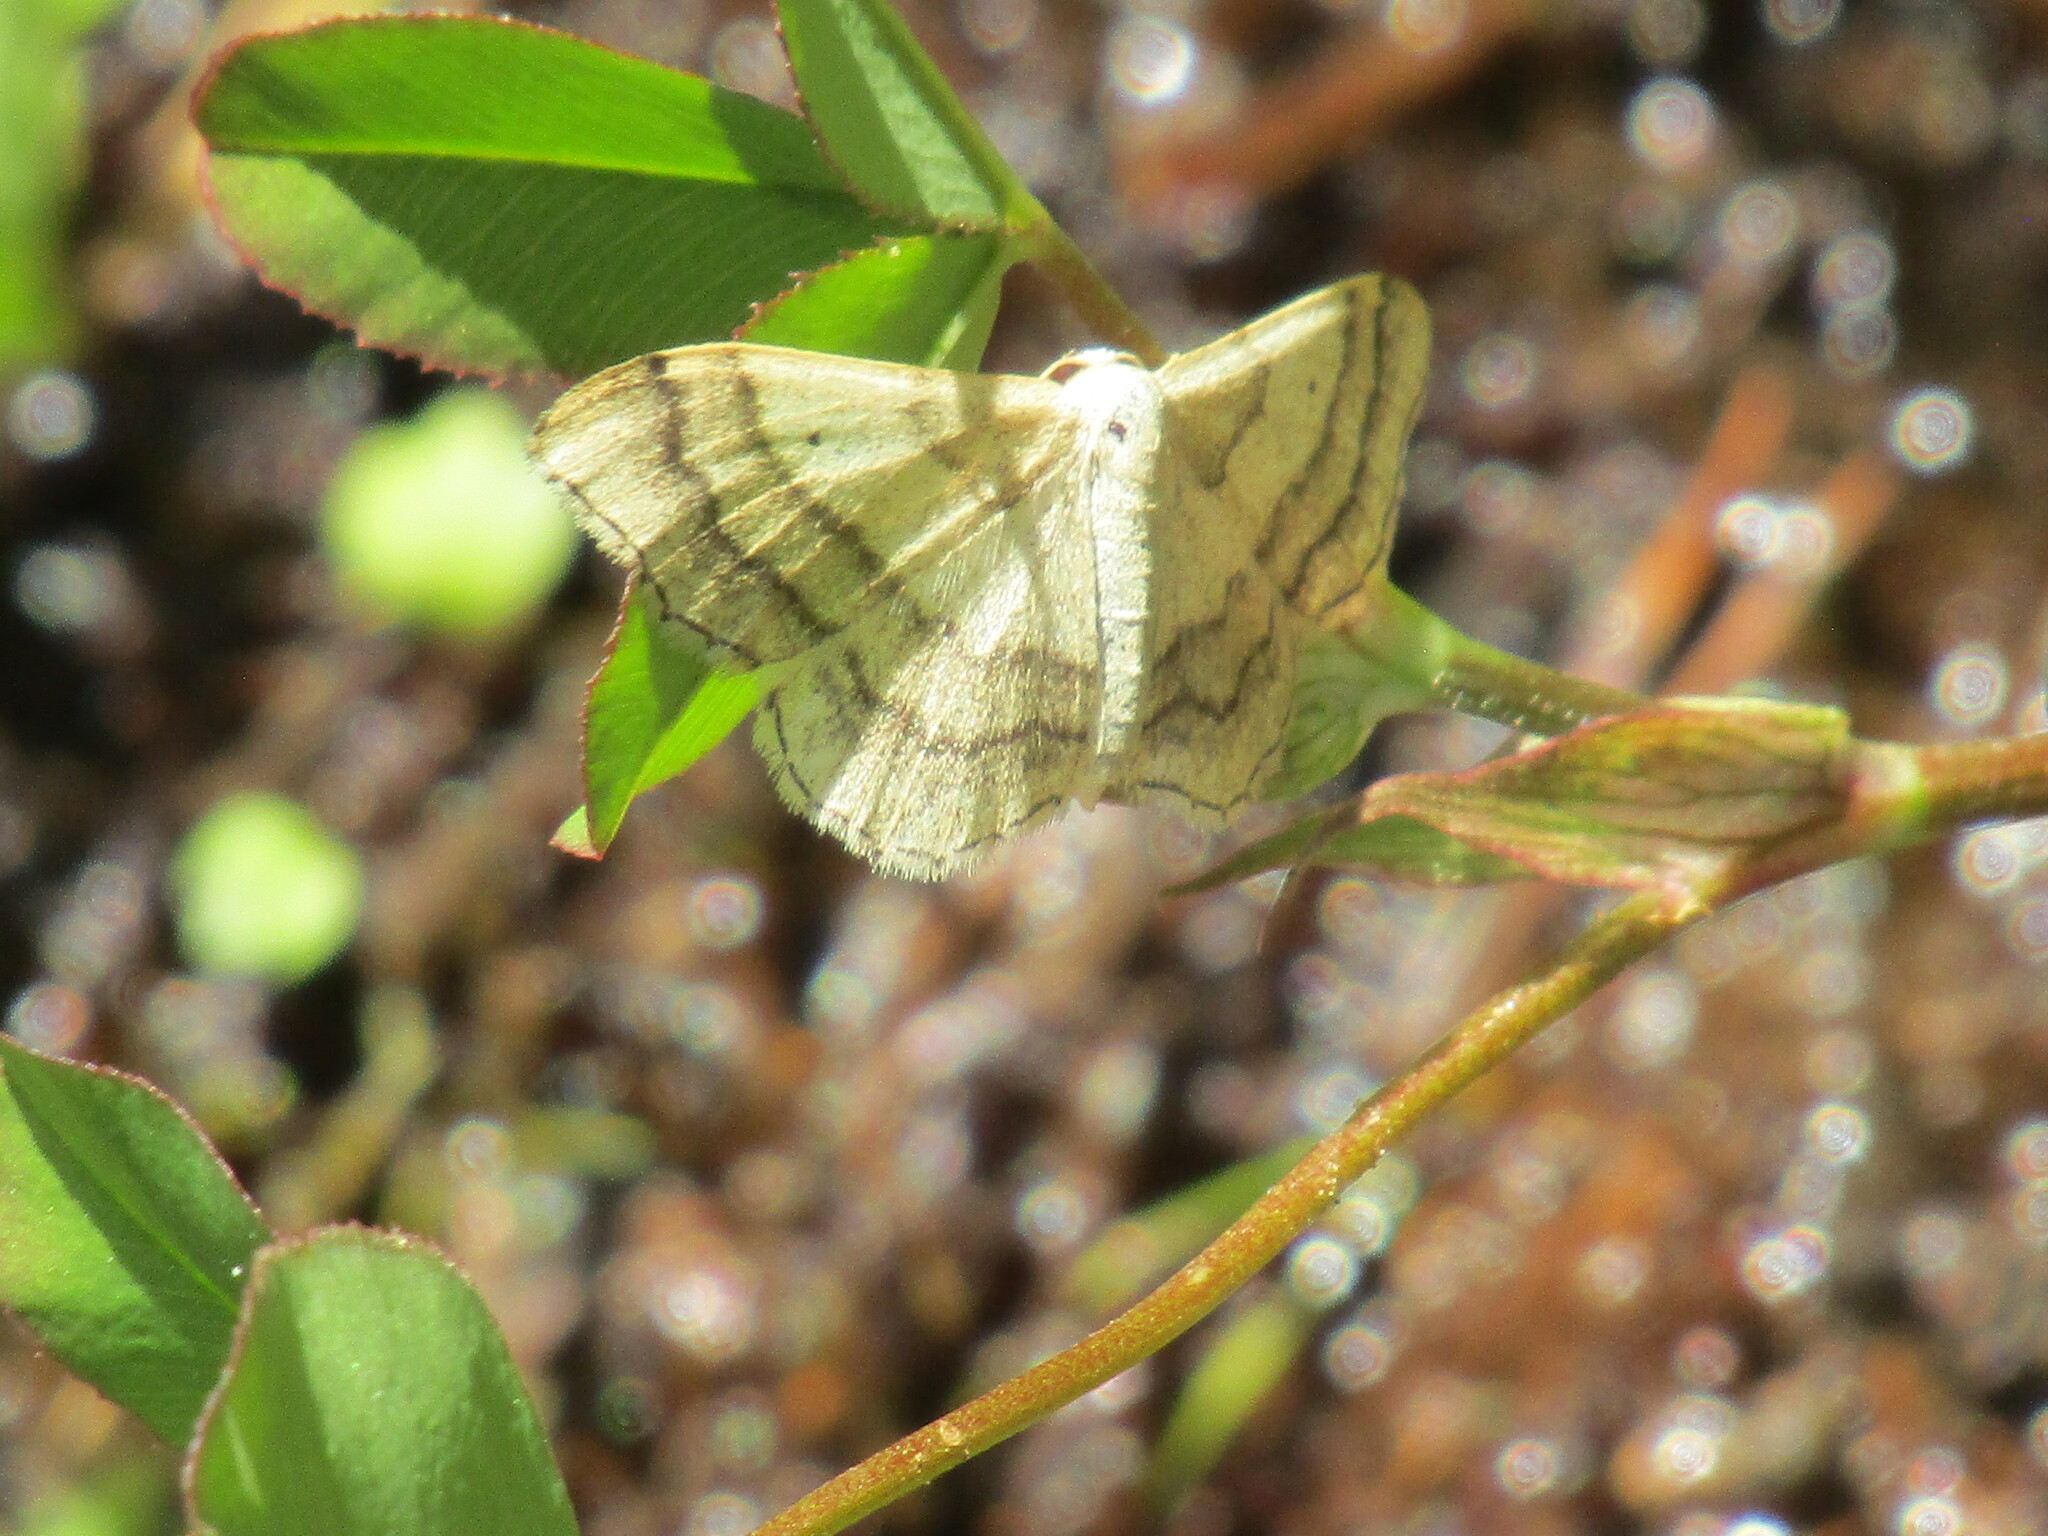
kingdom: Animalia
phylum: Arthropoda
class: Insecta
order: Lepidoptera
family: Geometridae
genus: Idaea
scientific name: Idaea rufaria
